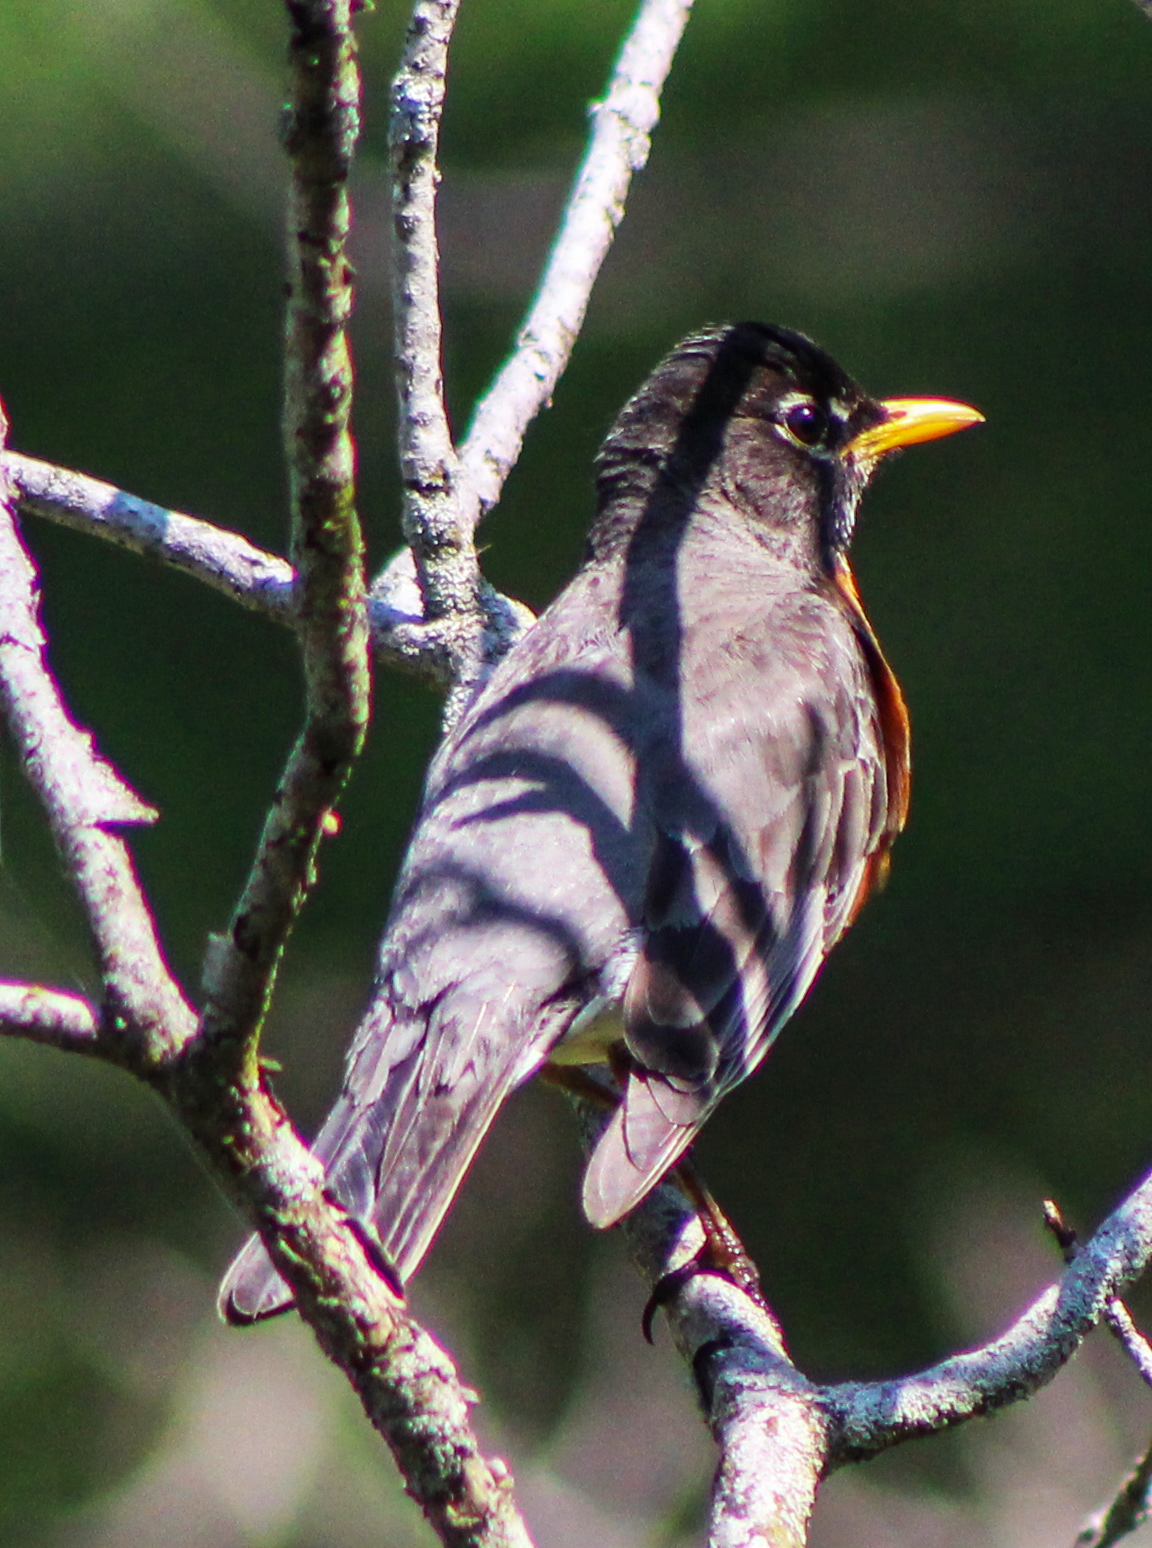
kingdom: Animalia
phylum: Chordata
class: Aves
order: Passeriformes
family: Turdidae
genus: Turdus
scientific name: Turdus migratorius
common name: American robin
